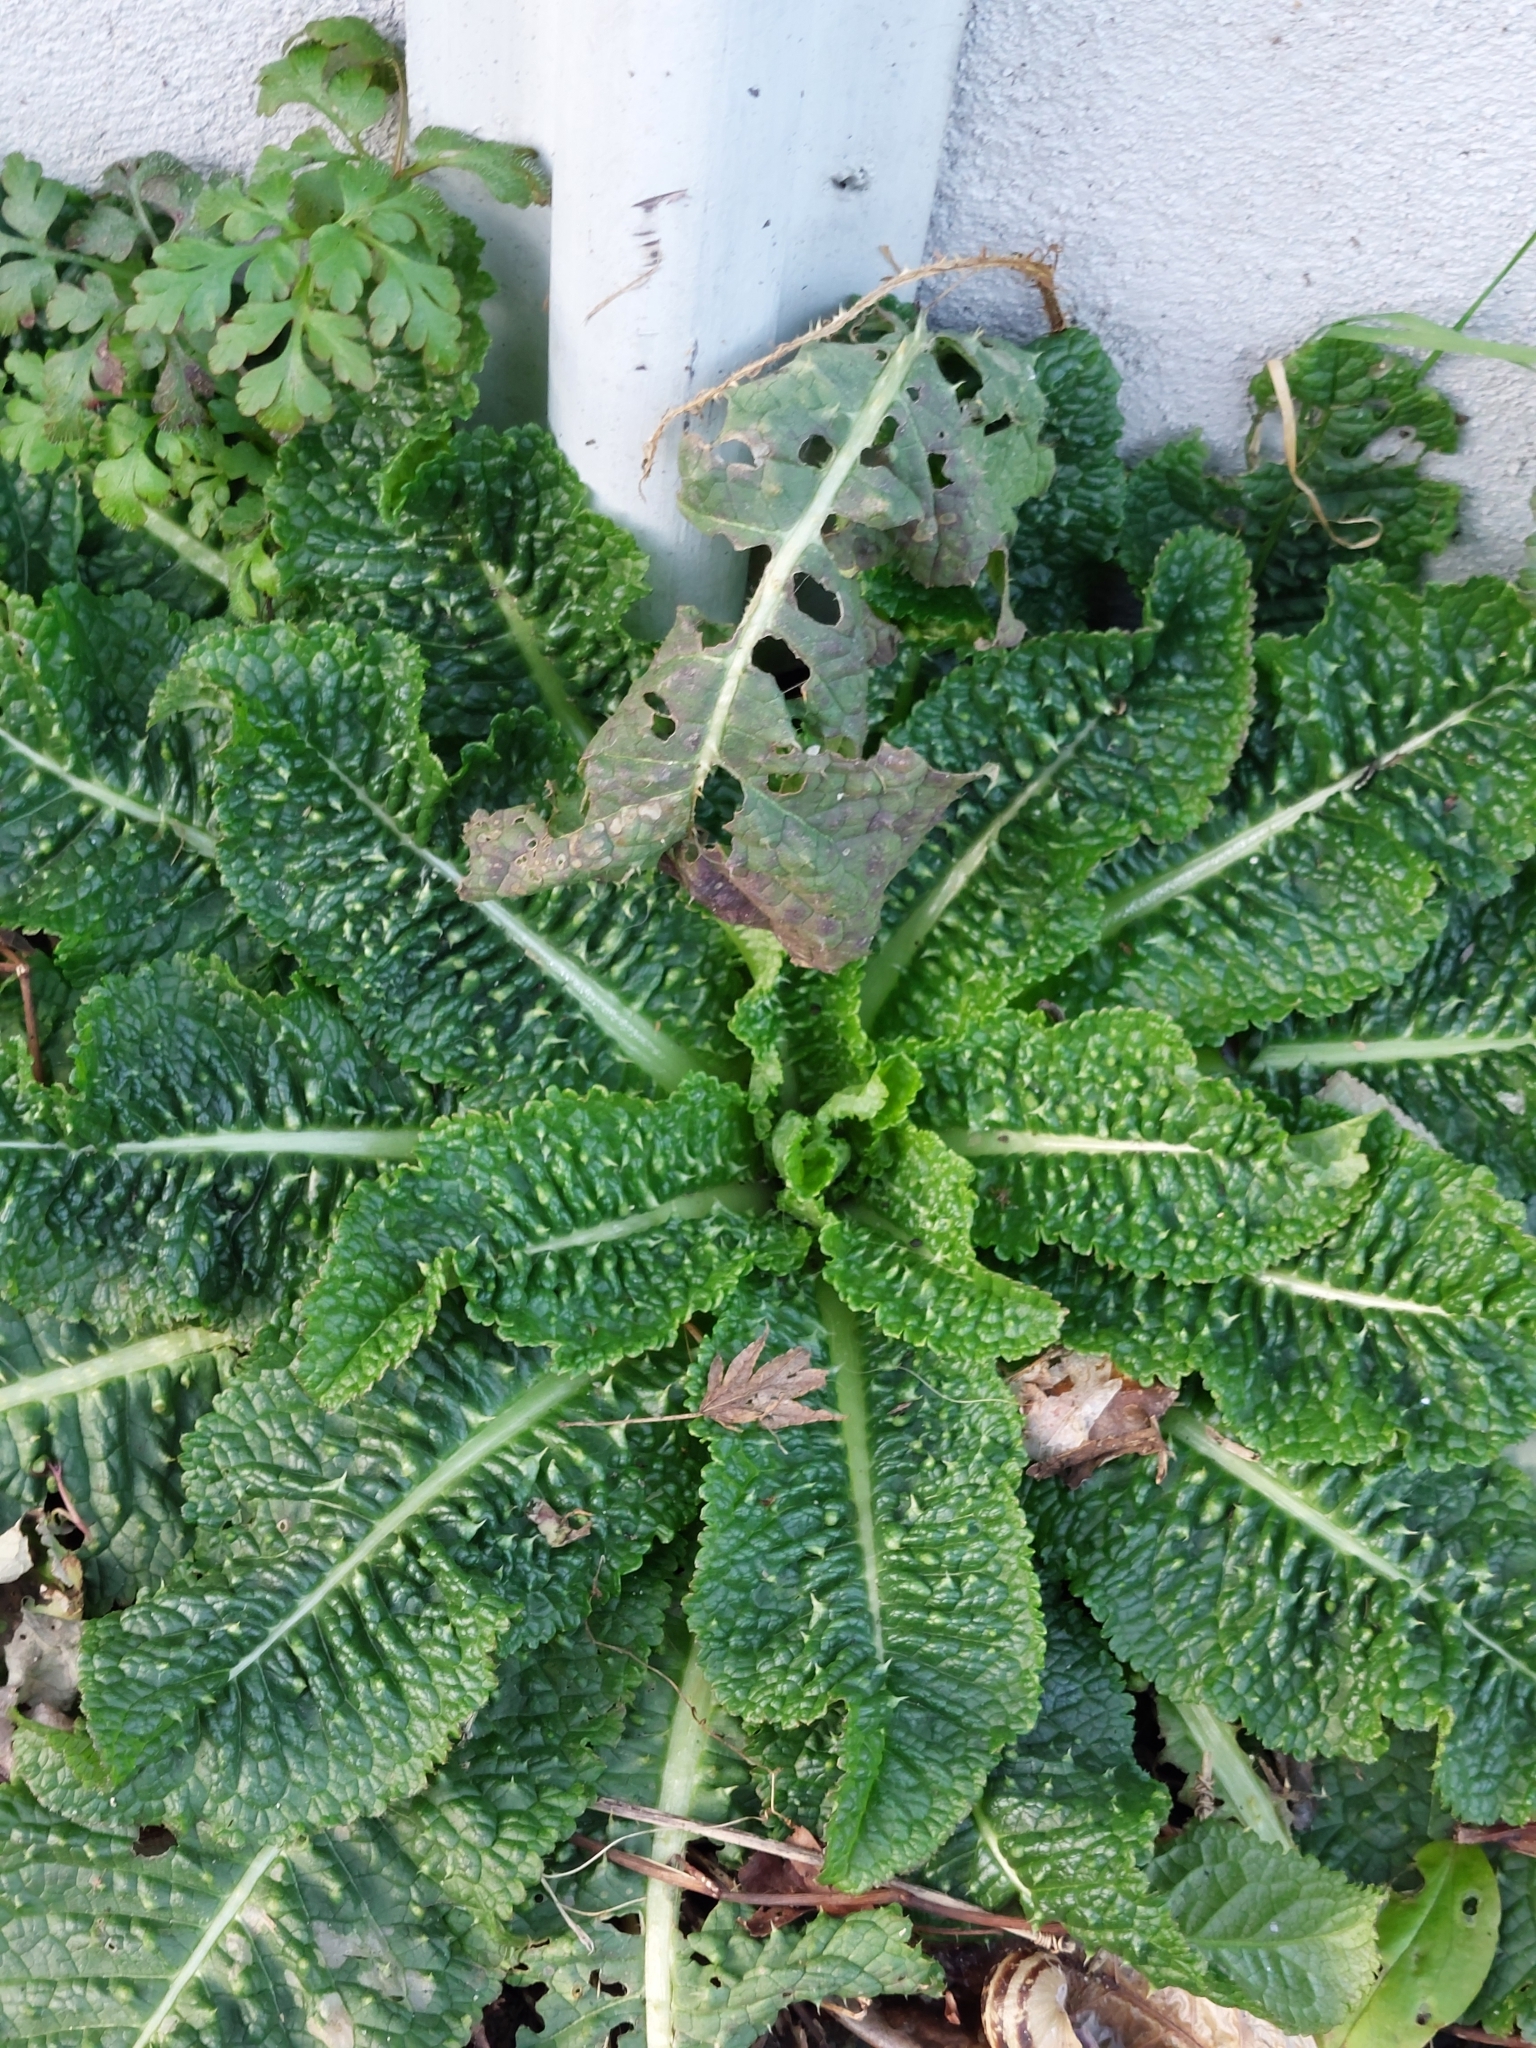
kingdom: Plantae
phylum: Tracheophyta
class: Magnoliopsida
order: Dipsacales
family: Caprifoliaceae
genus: Dipsacus
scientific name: Dipsacus fullonum
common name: Teasel
